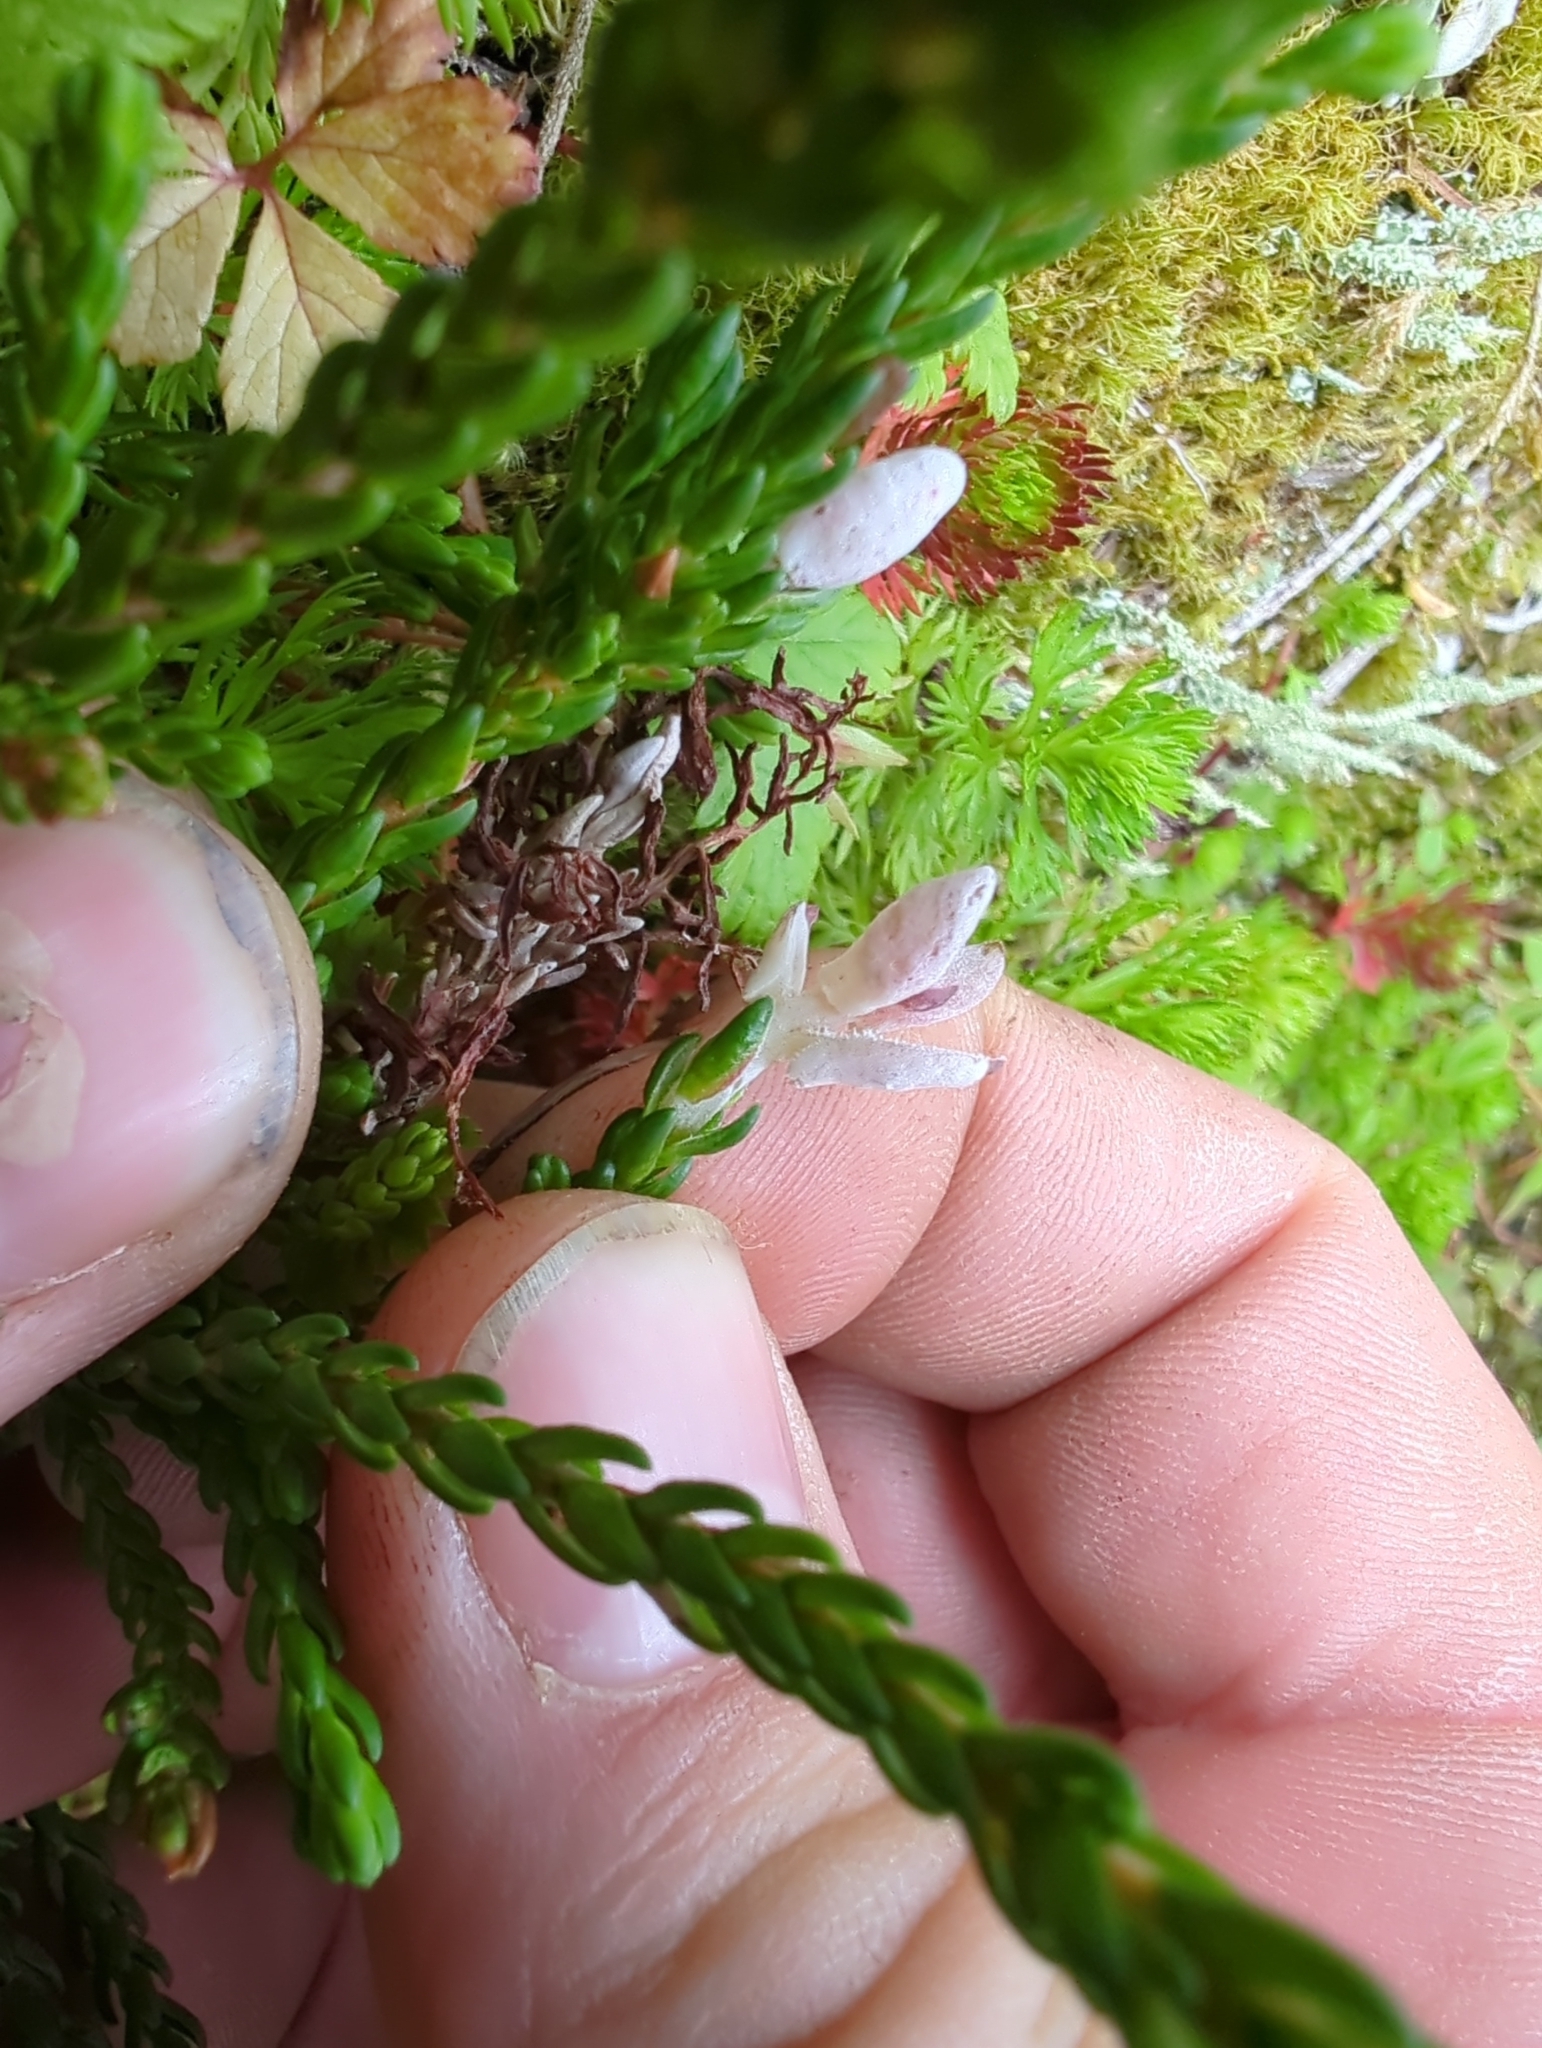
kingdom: Fungi
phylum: Basidiomycota
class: Exobasidiomycetes
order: Exobasidiales
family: Exobasidiaceae
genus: Exobasidium
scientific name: Exobasidium cassiopes
